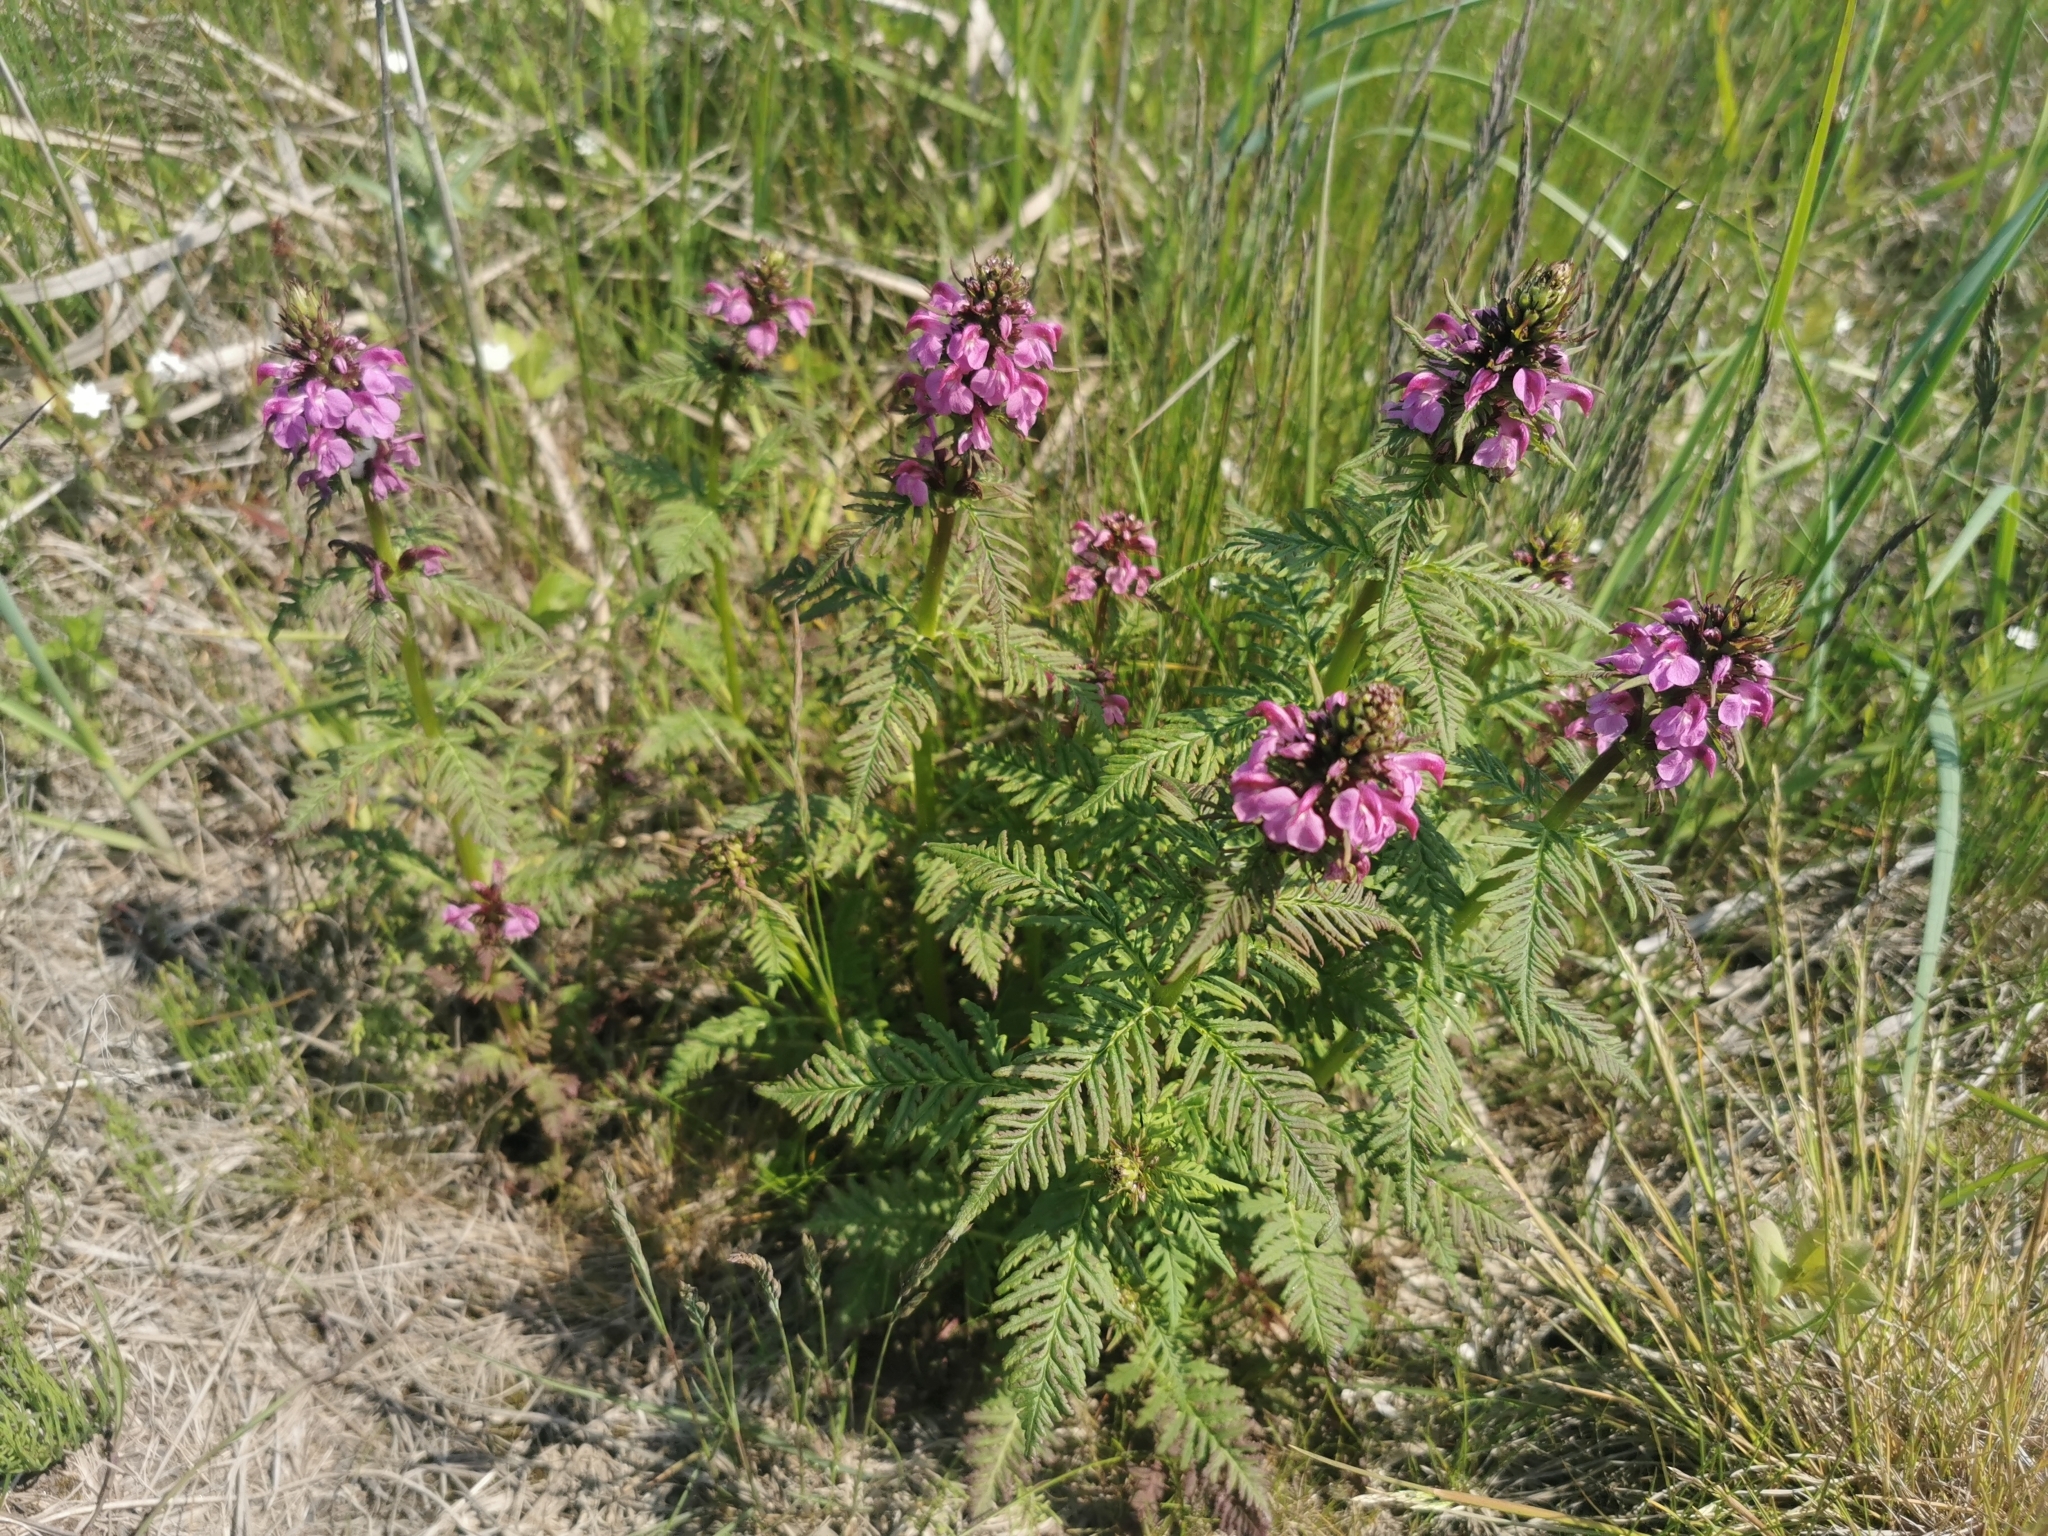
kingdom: Plantae
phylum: Tracheophyta
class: Magnoliopsida
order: Lamiales
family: Orobanchaceae
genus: Pedicularis
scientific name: Pedicularis verticillata
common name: Whorled lousewort
